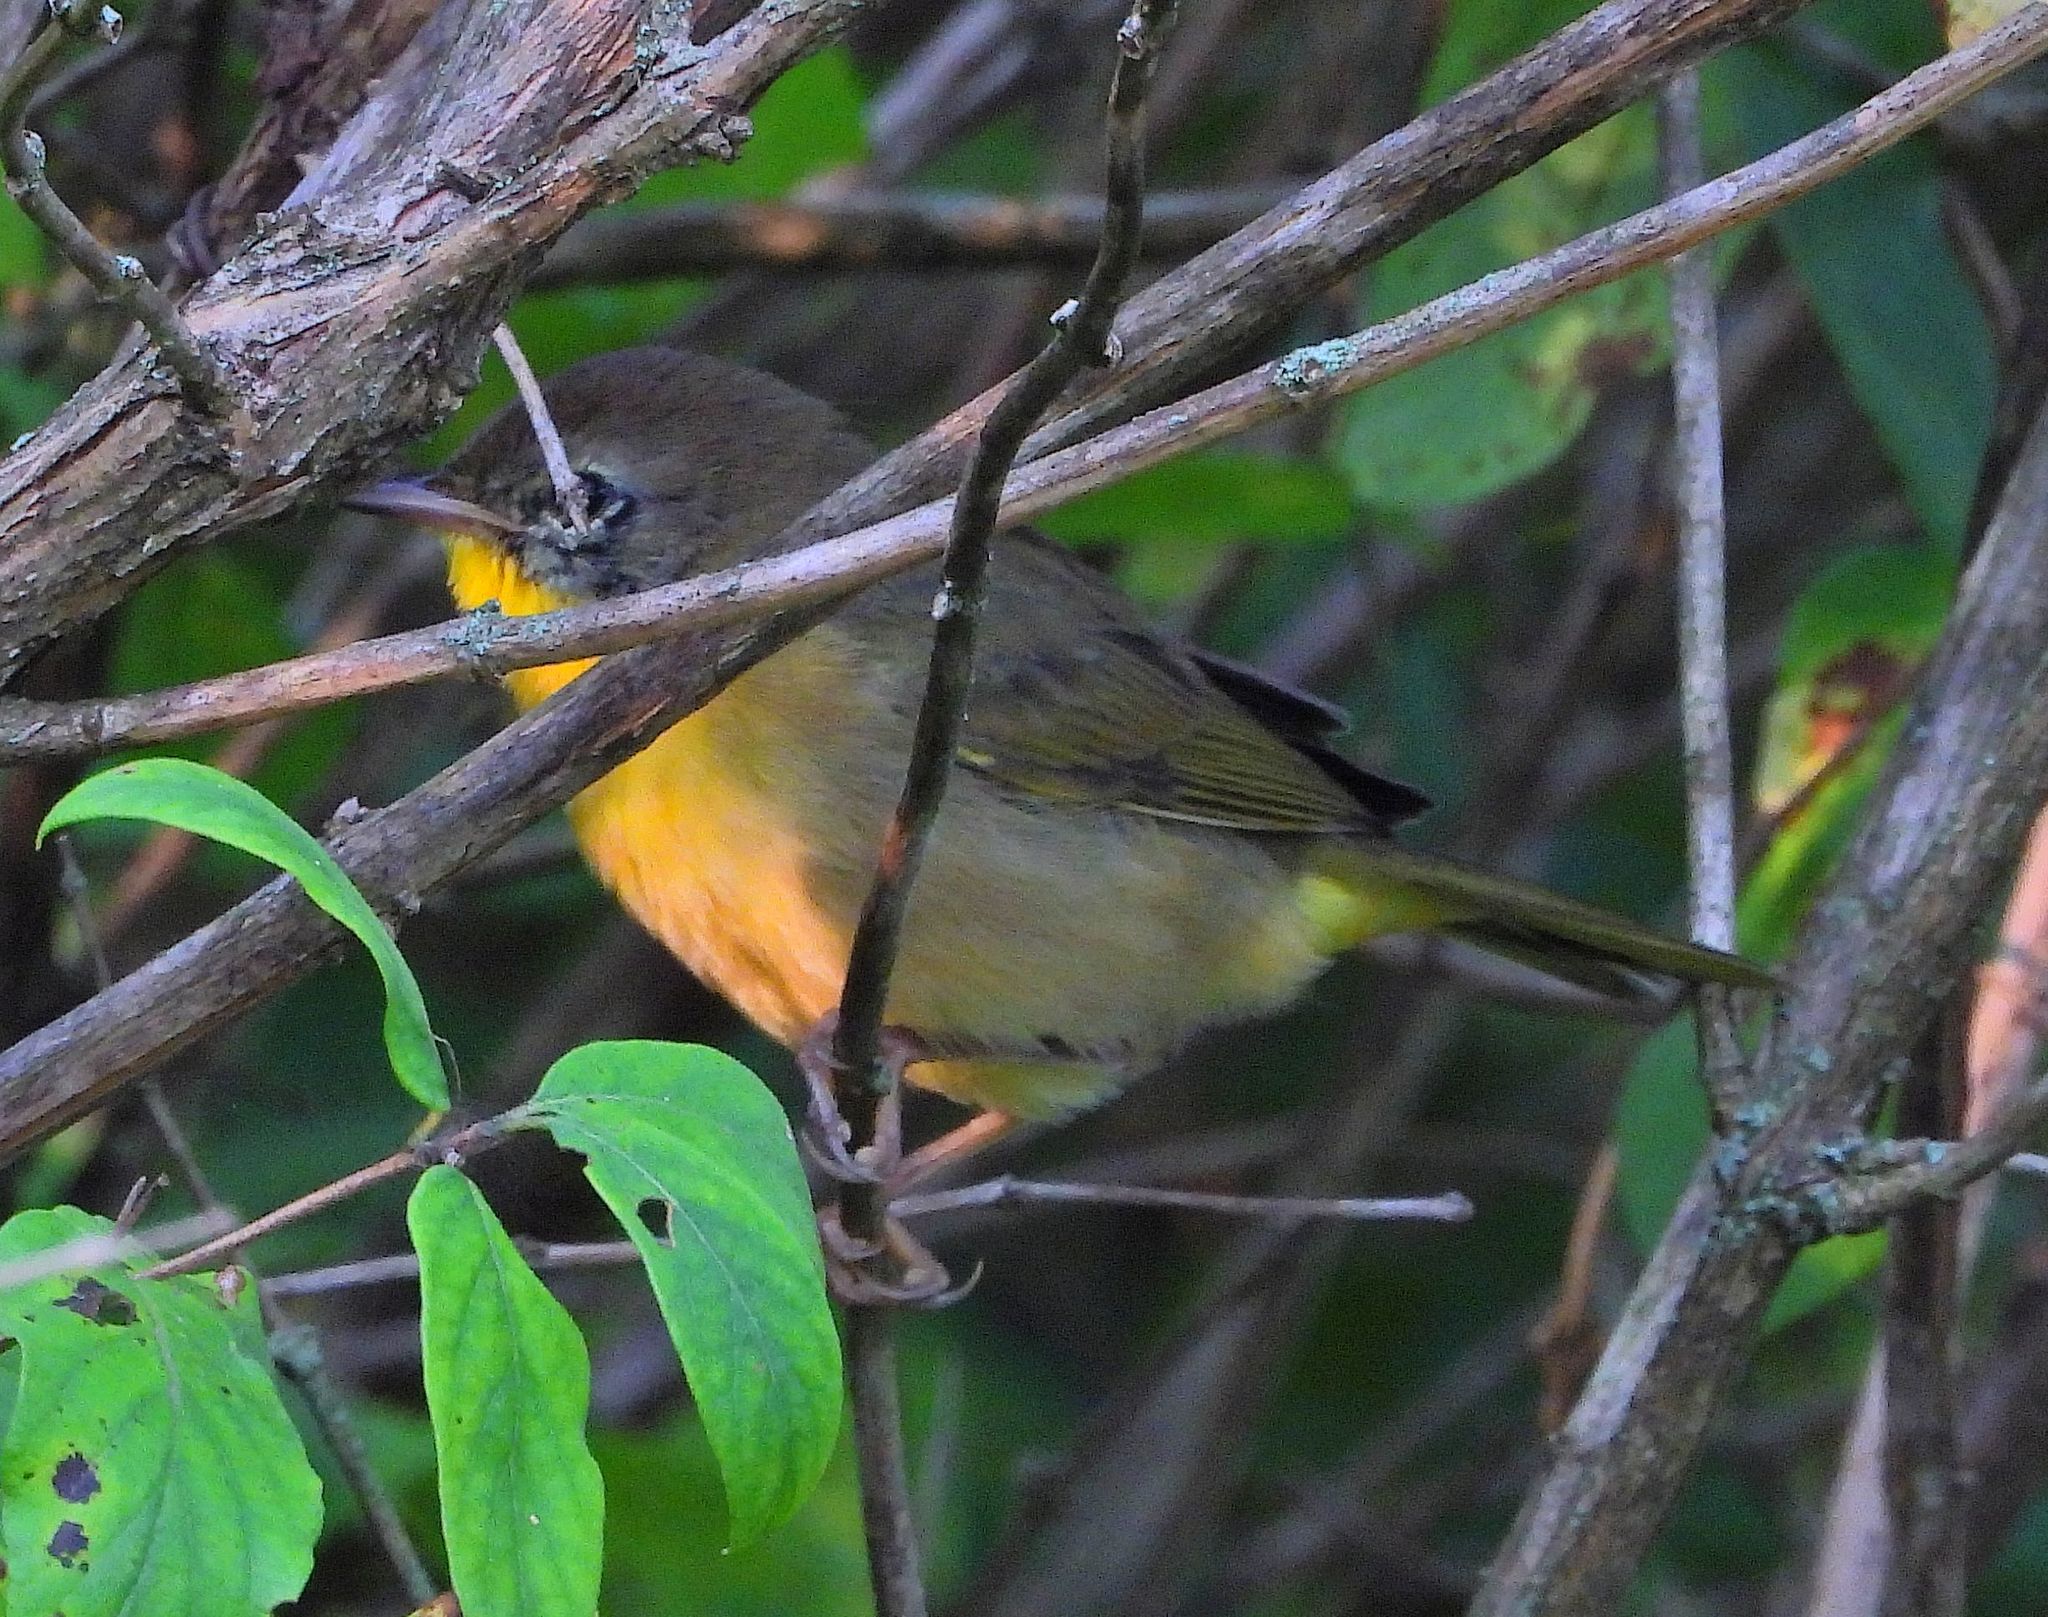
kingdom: Animalia
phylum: Chordata
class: Aves
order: Passeriformes
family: Parulidae
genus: Geothlypis
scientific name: Geothlypis trichas
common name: Common yellowthroat
